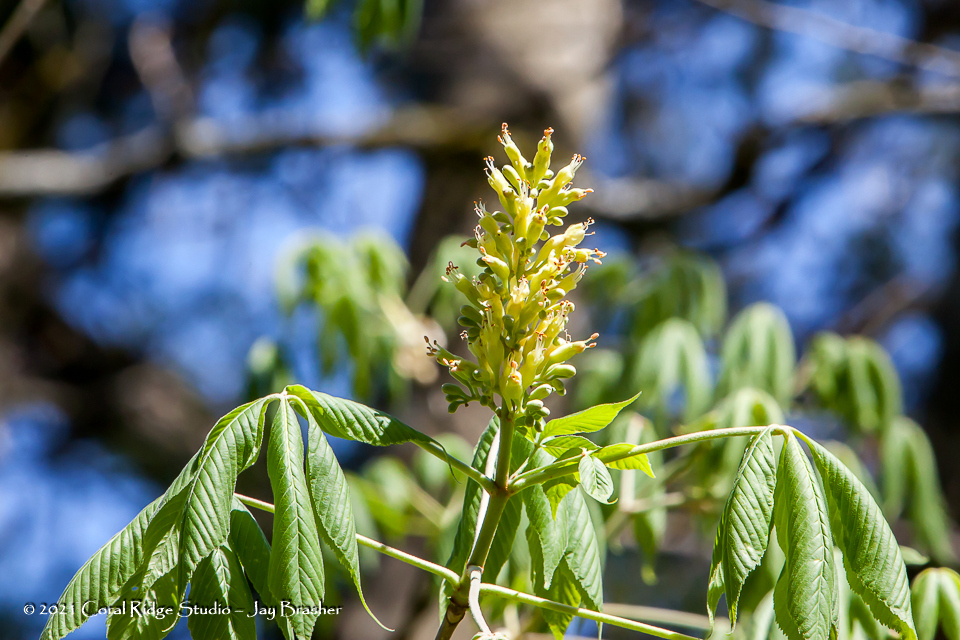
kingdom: Plantae
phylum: Tracheophyta
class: Magnoliopsida
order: Sapindales
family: Sapindaceae
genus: Aesculus
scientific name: Aesculus flava
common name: Yellow buckeye
